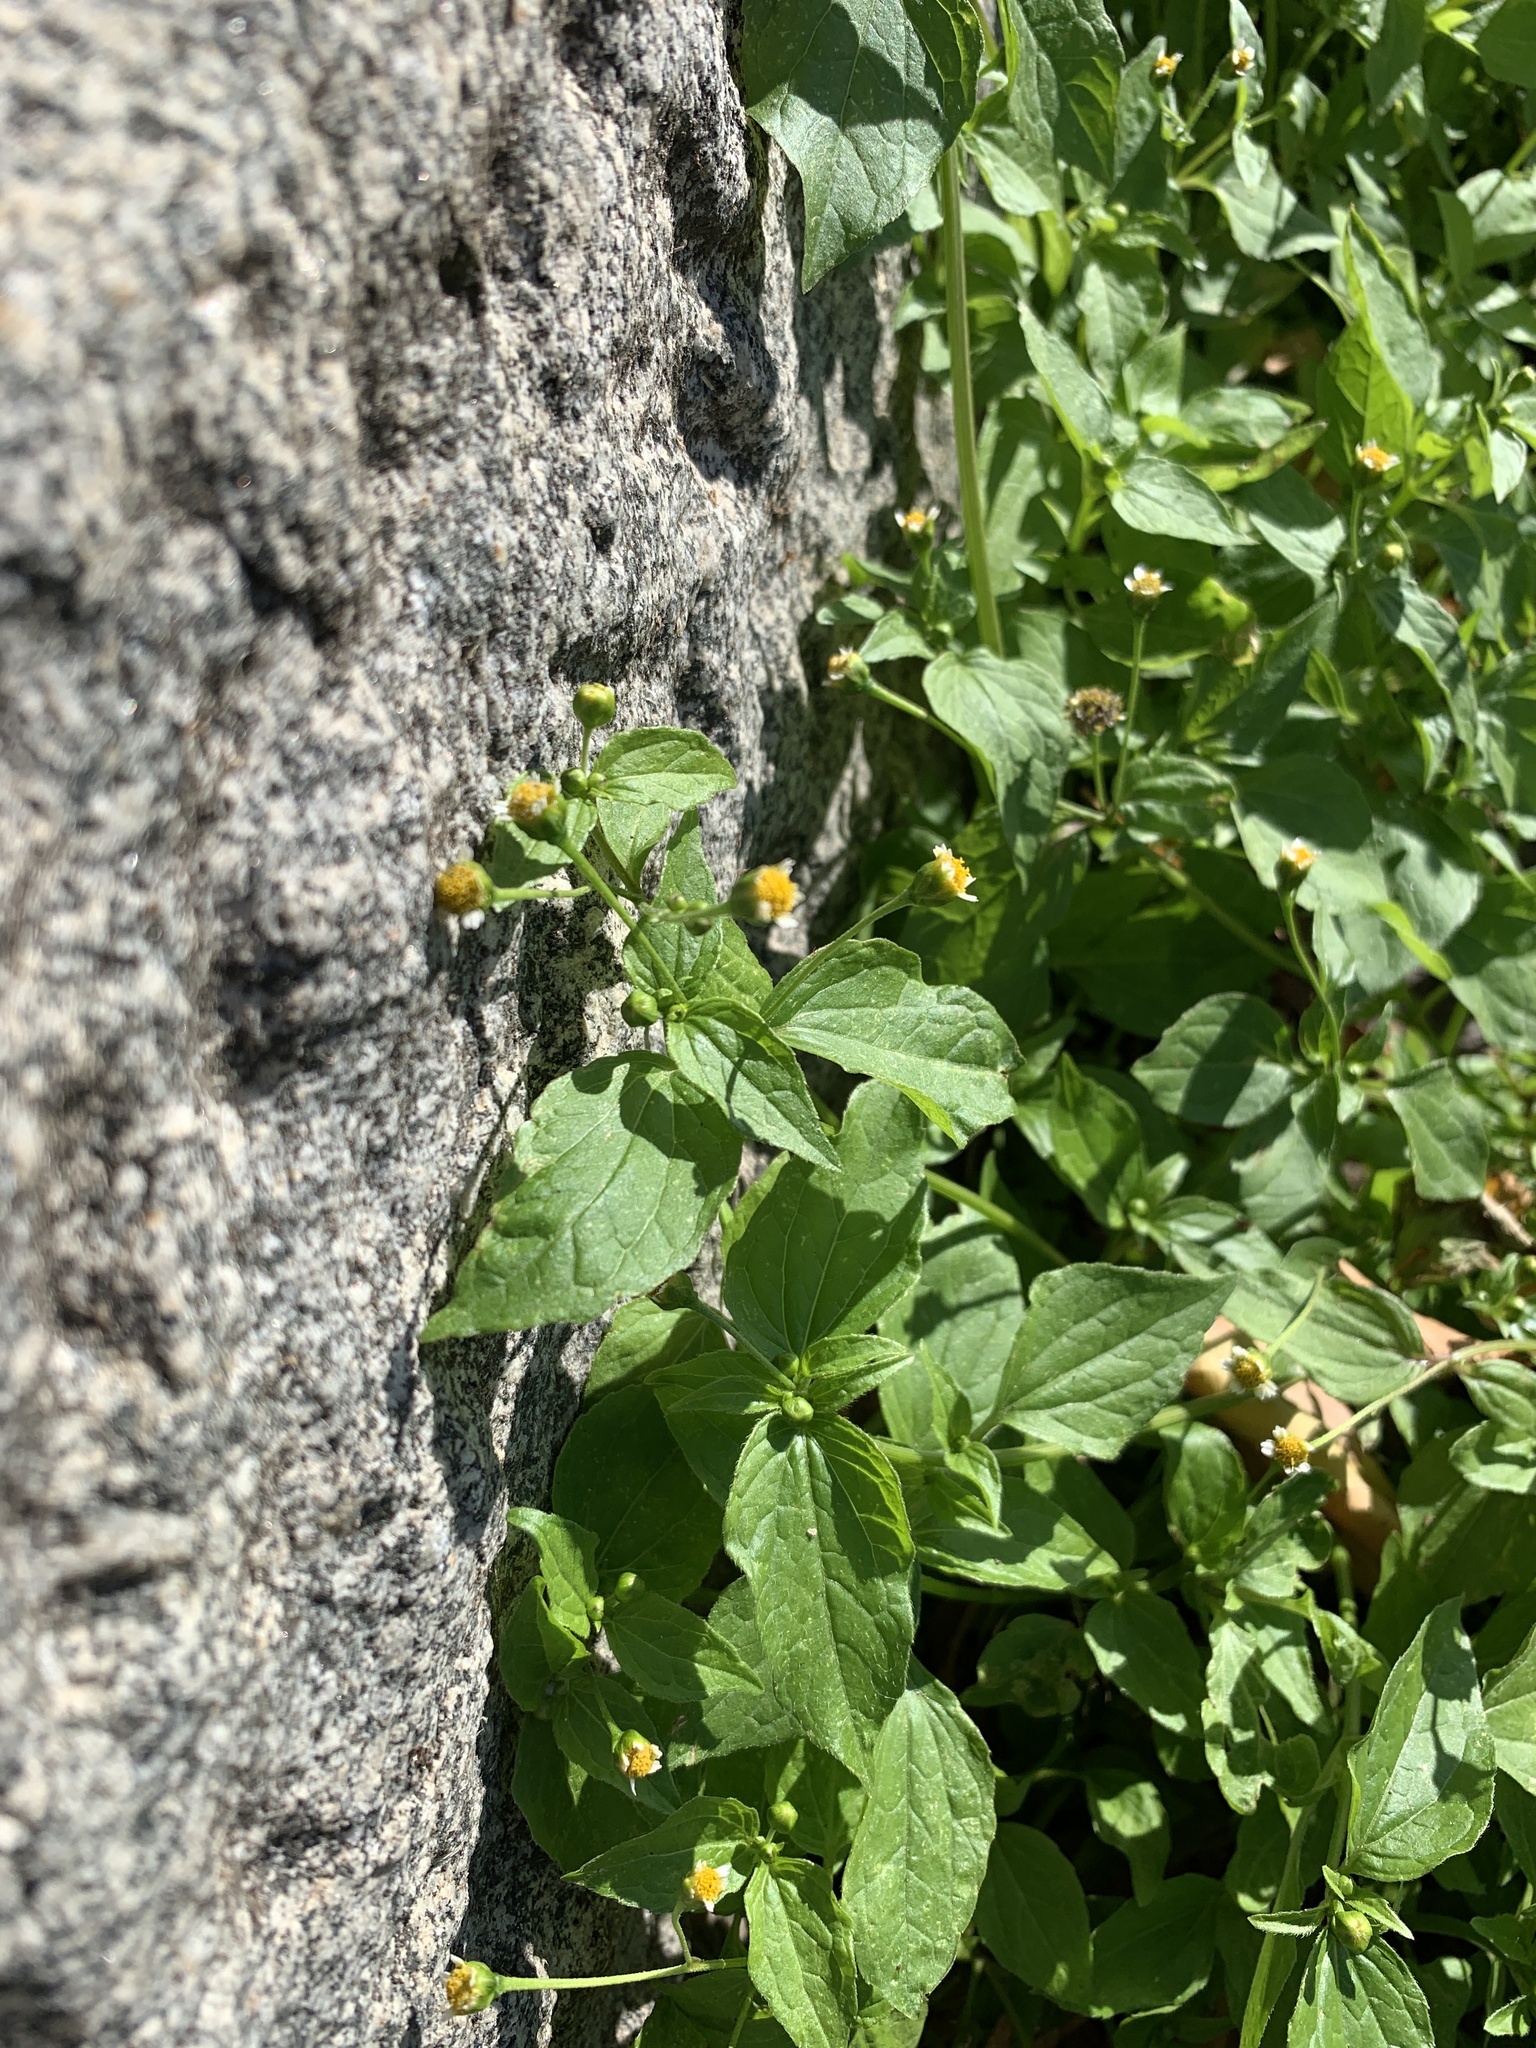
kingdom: Plantae
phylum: Tracheophyta
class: Magnoliopsida
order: Asterales
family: Asteraceae
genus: Galinsoga
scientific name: Galinsoga parviflora
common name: Gallant soldier
